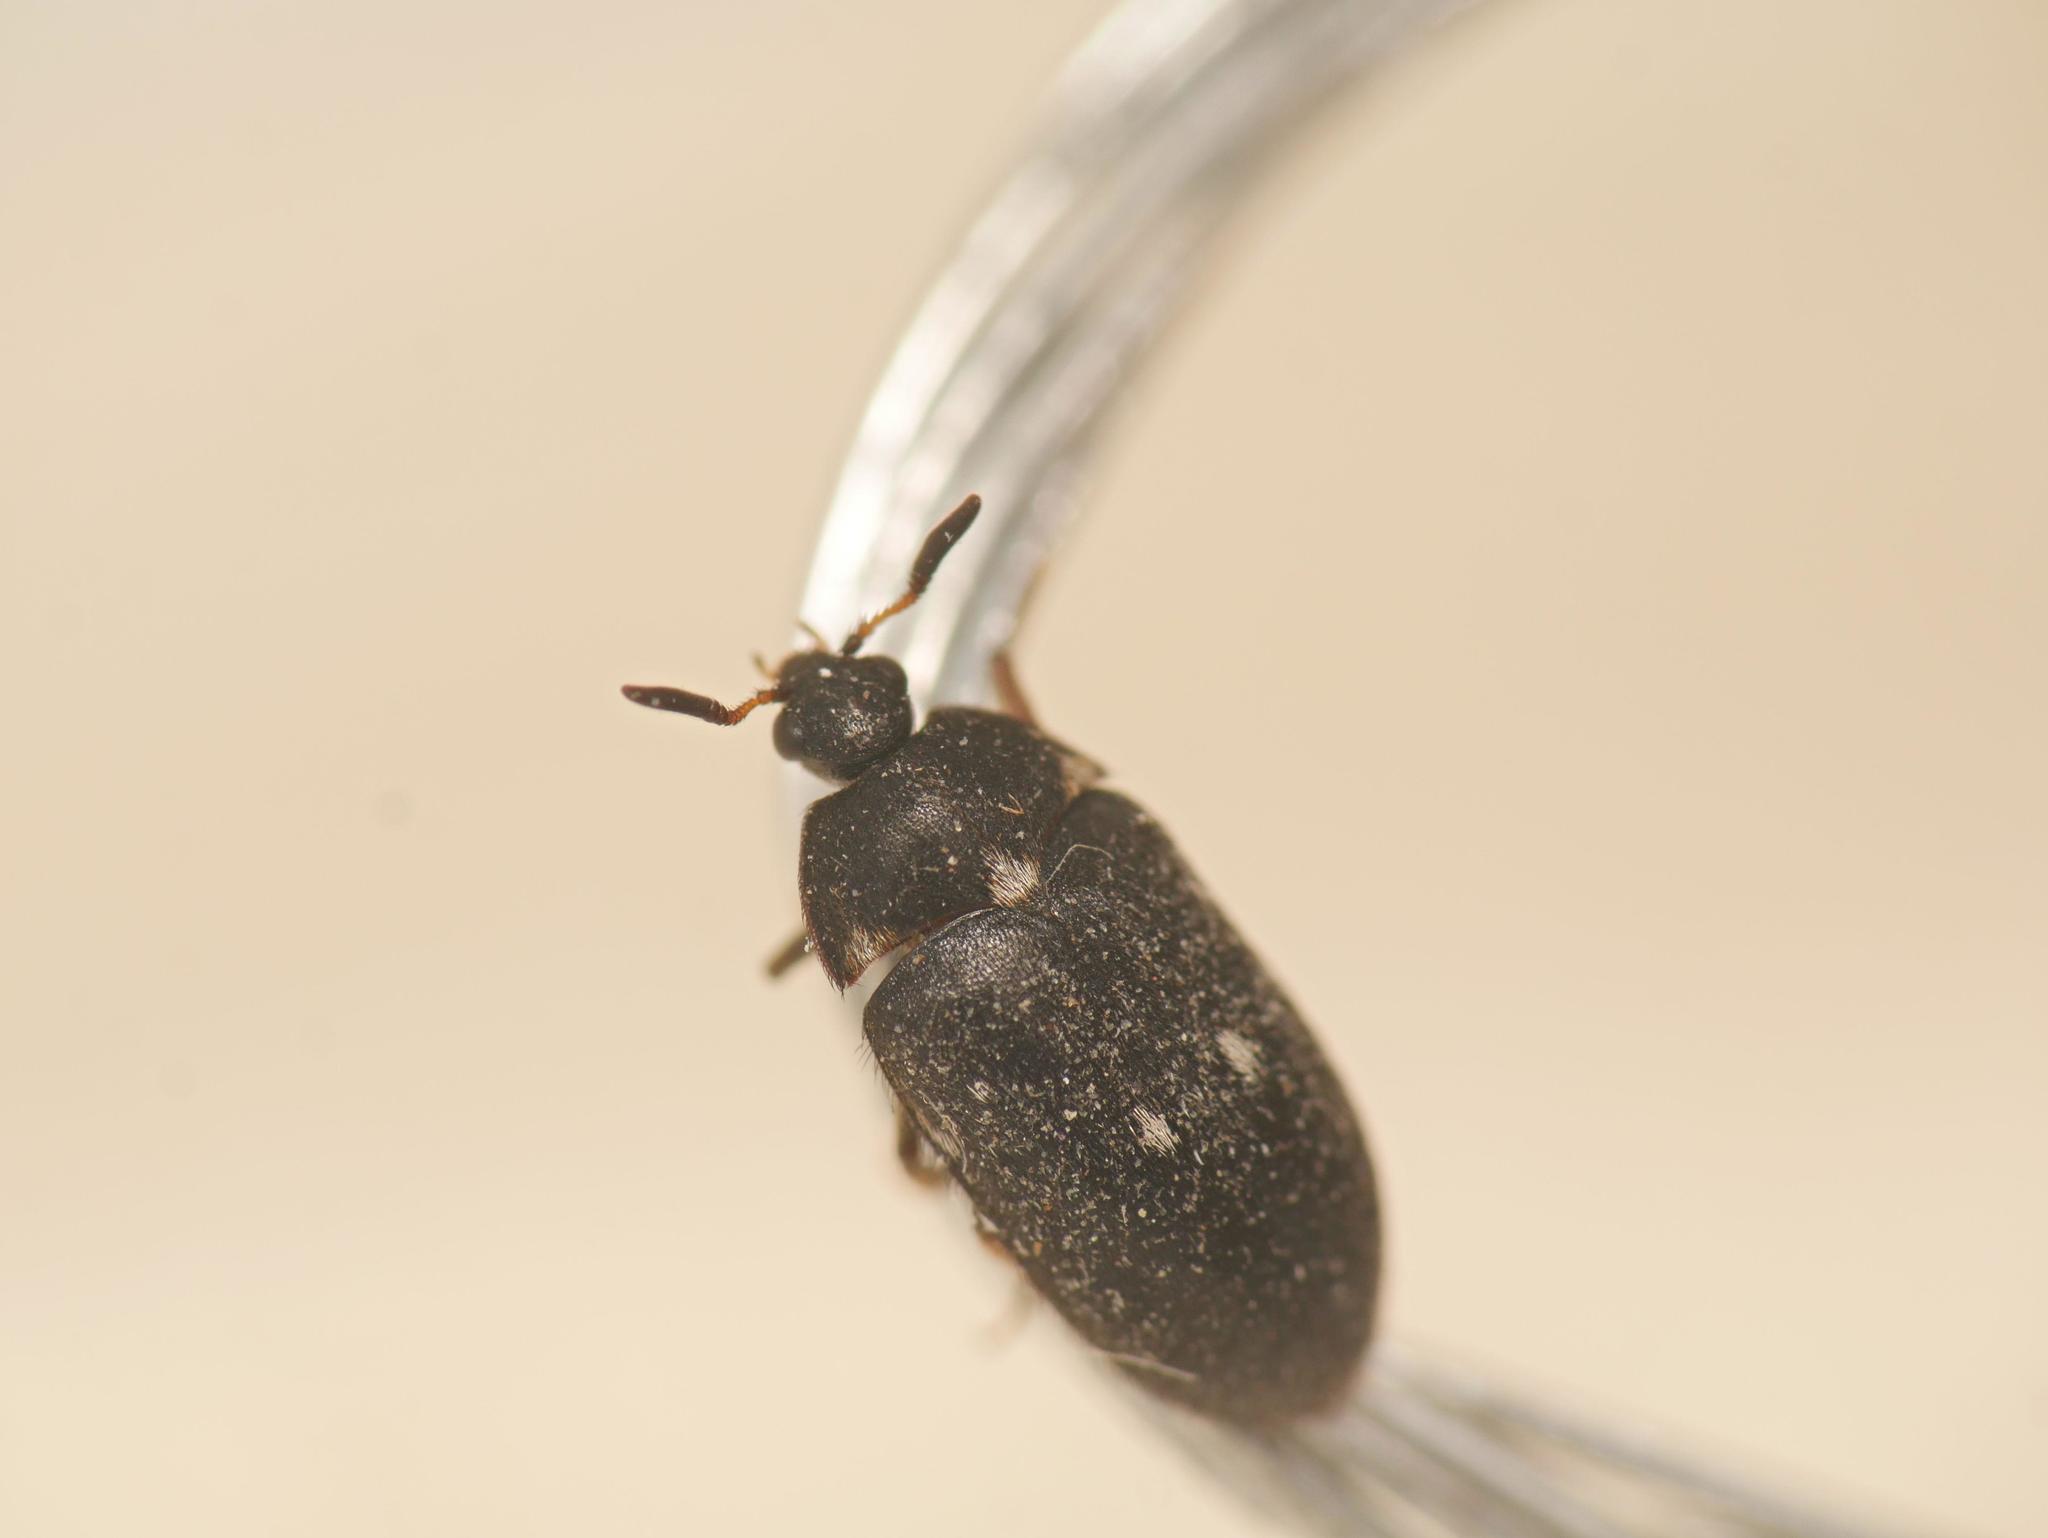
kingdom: Animalia
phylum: Arthropoda
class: Insecta
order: Coleoptera
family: Dermestidae
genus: Attagenus
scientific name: Attagenus pellio
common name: Two-spotted carpet beetle
